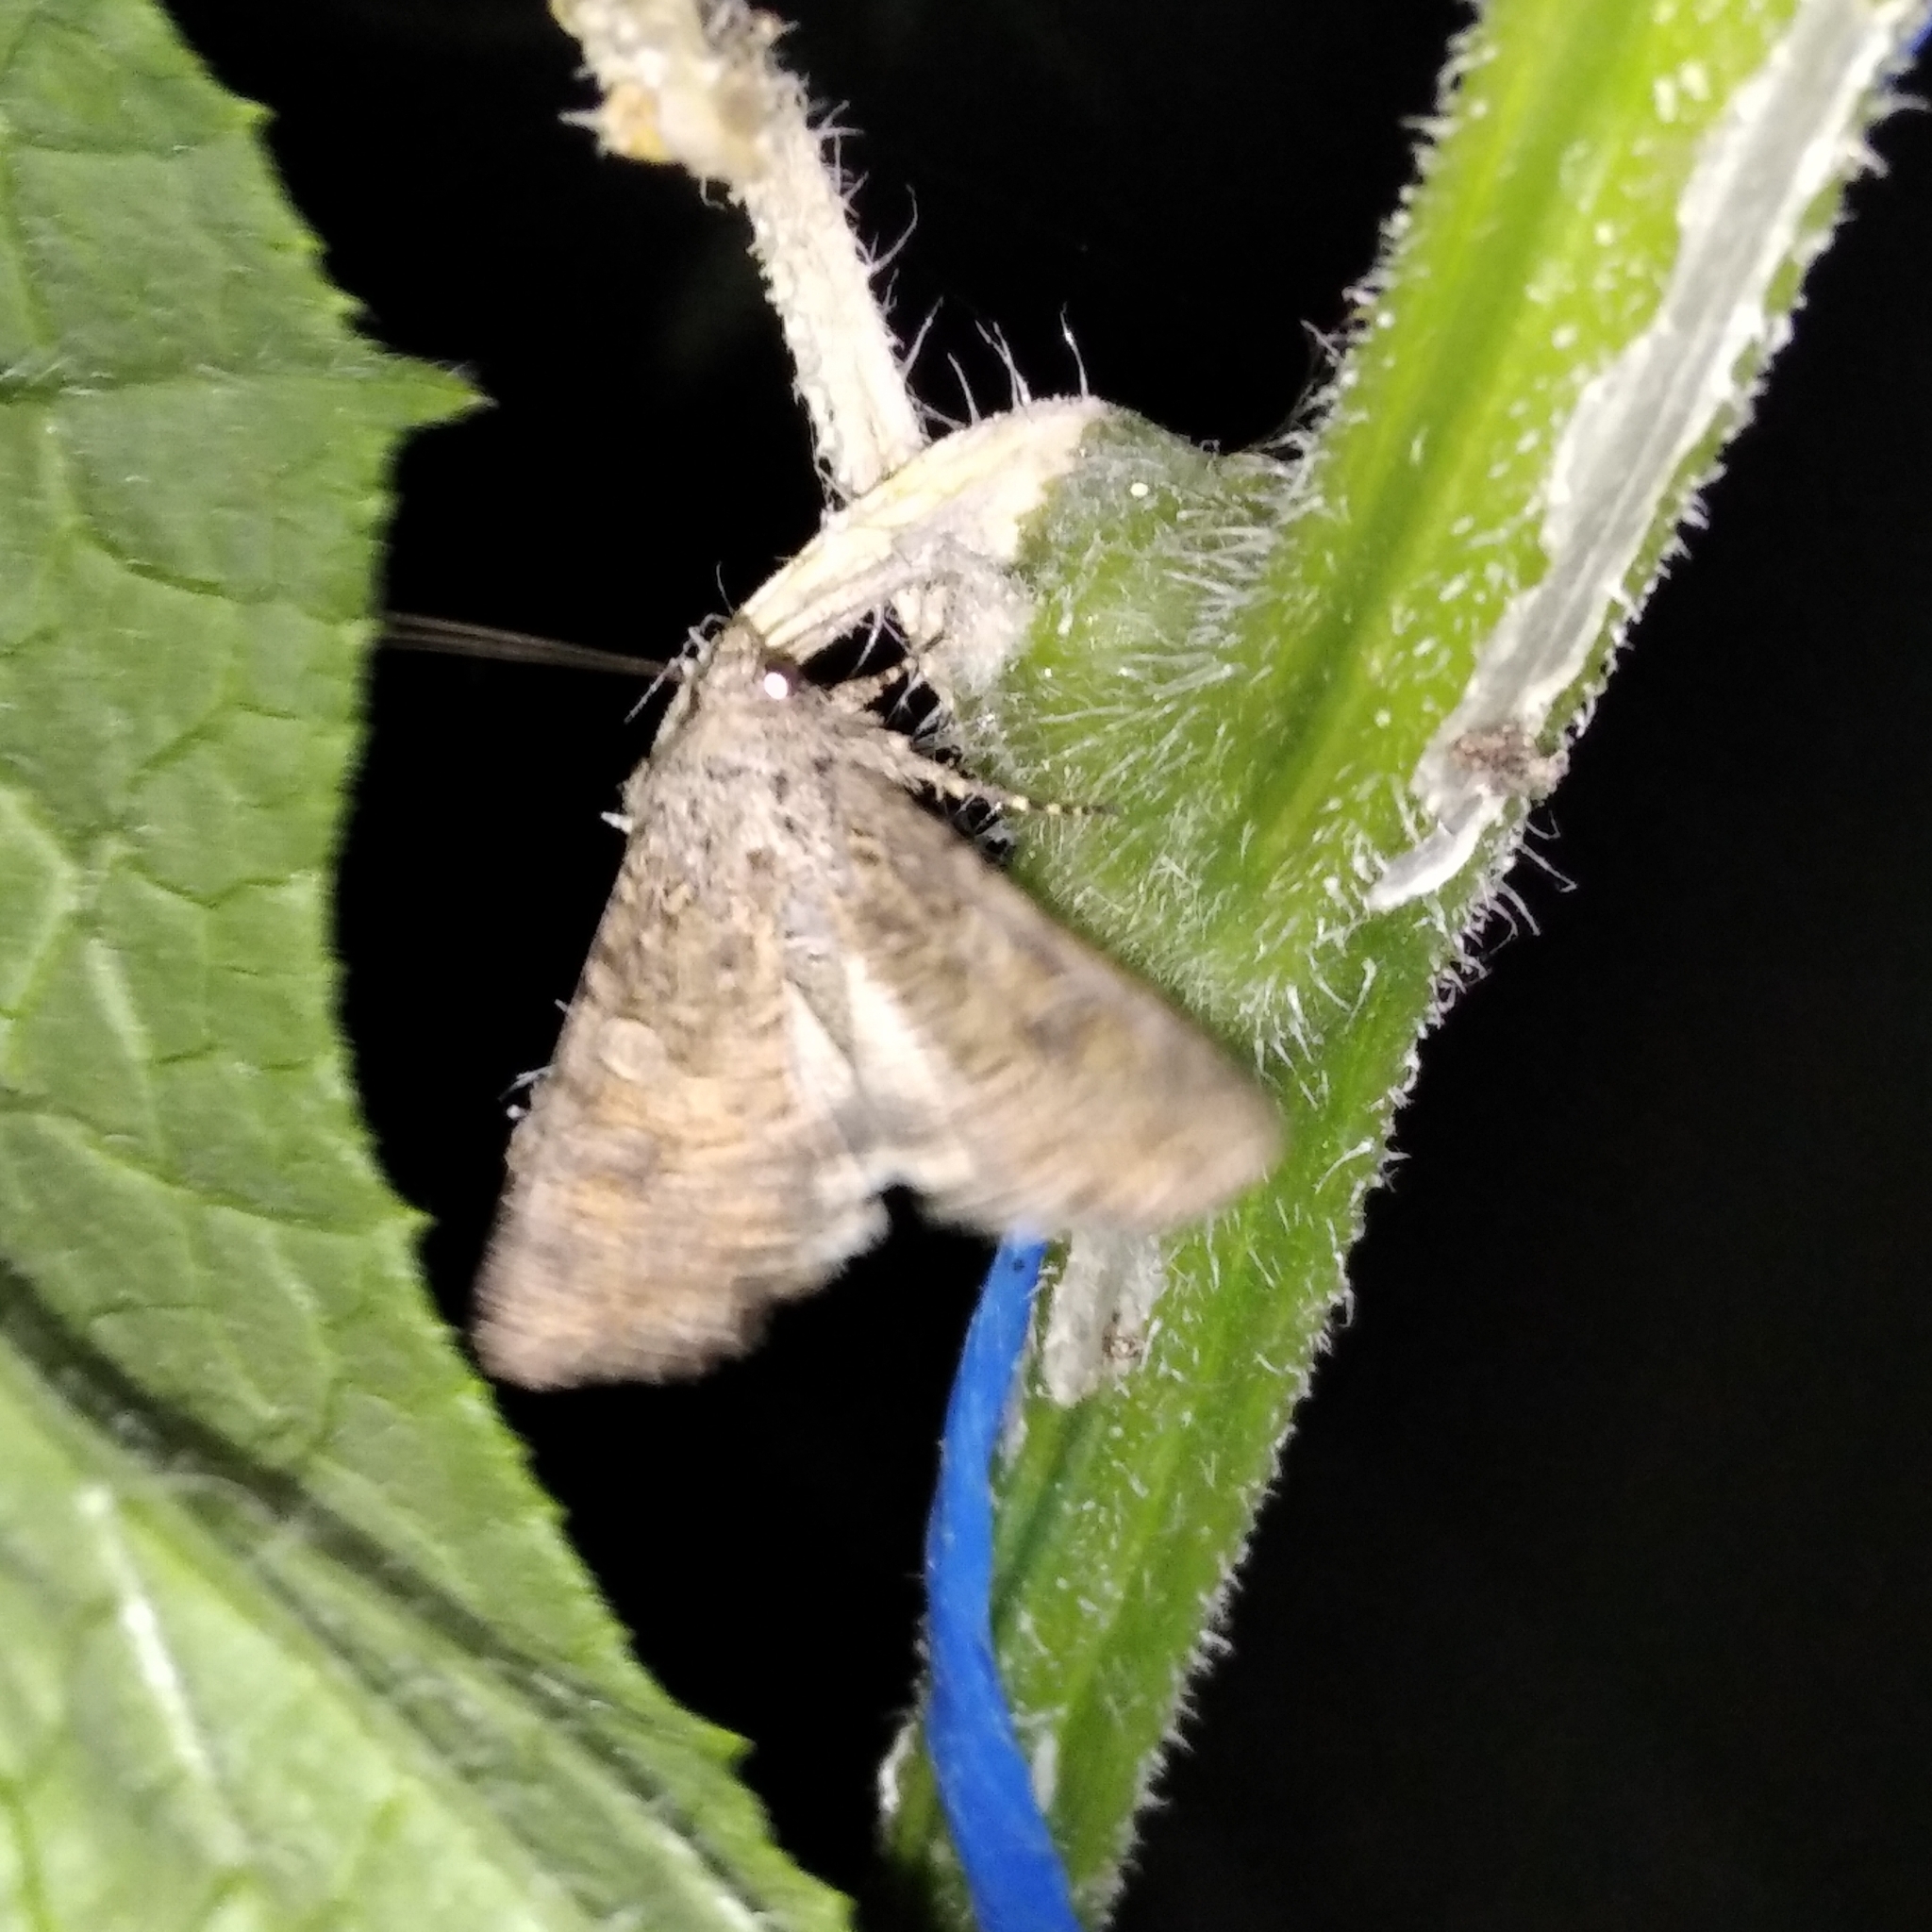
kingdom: Animalia
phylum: Arthropoda
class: Insecta
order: Lepidoptera
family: Noctuidae
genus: Anarta
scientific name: Anarta trifolii
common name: Clover cutworm moth
